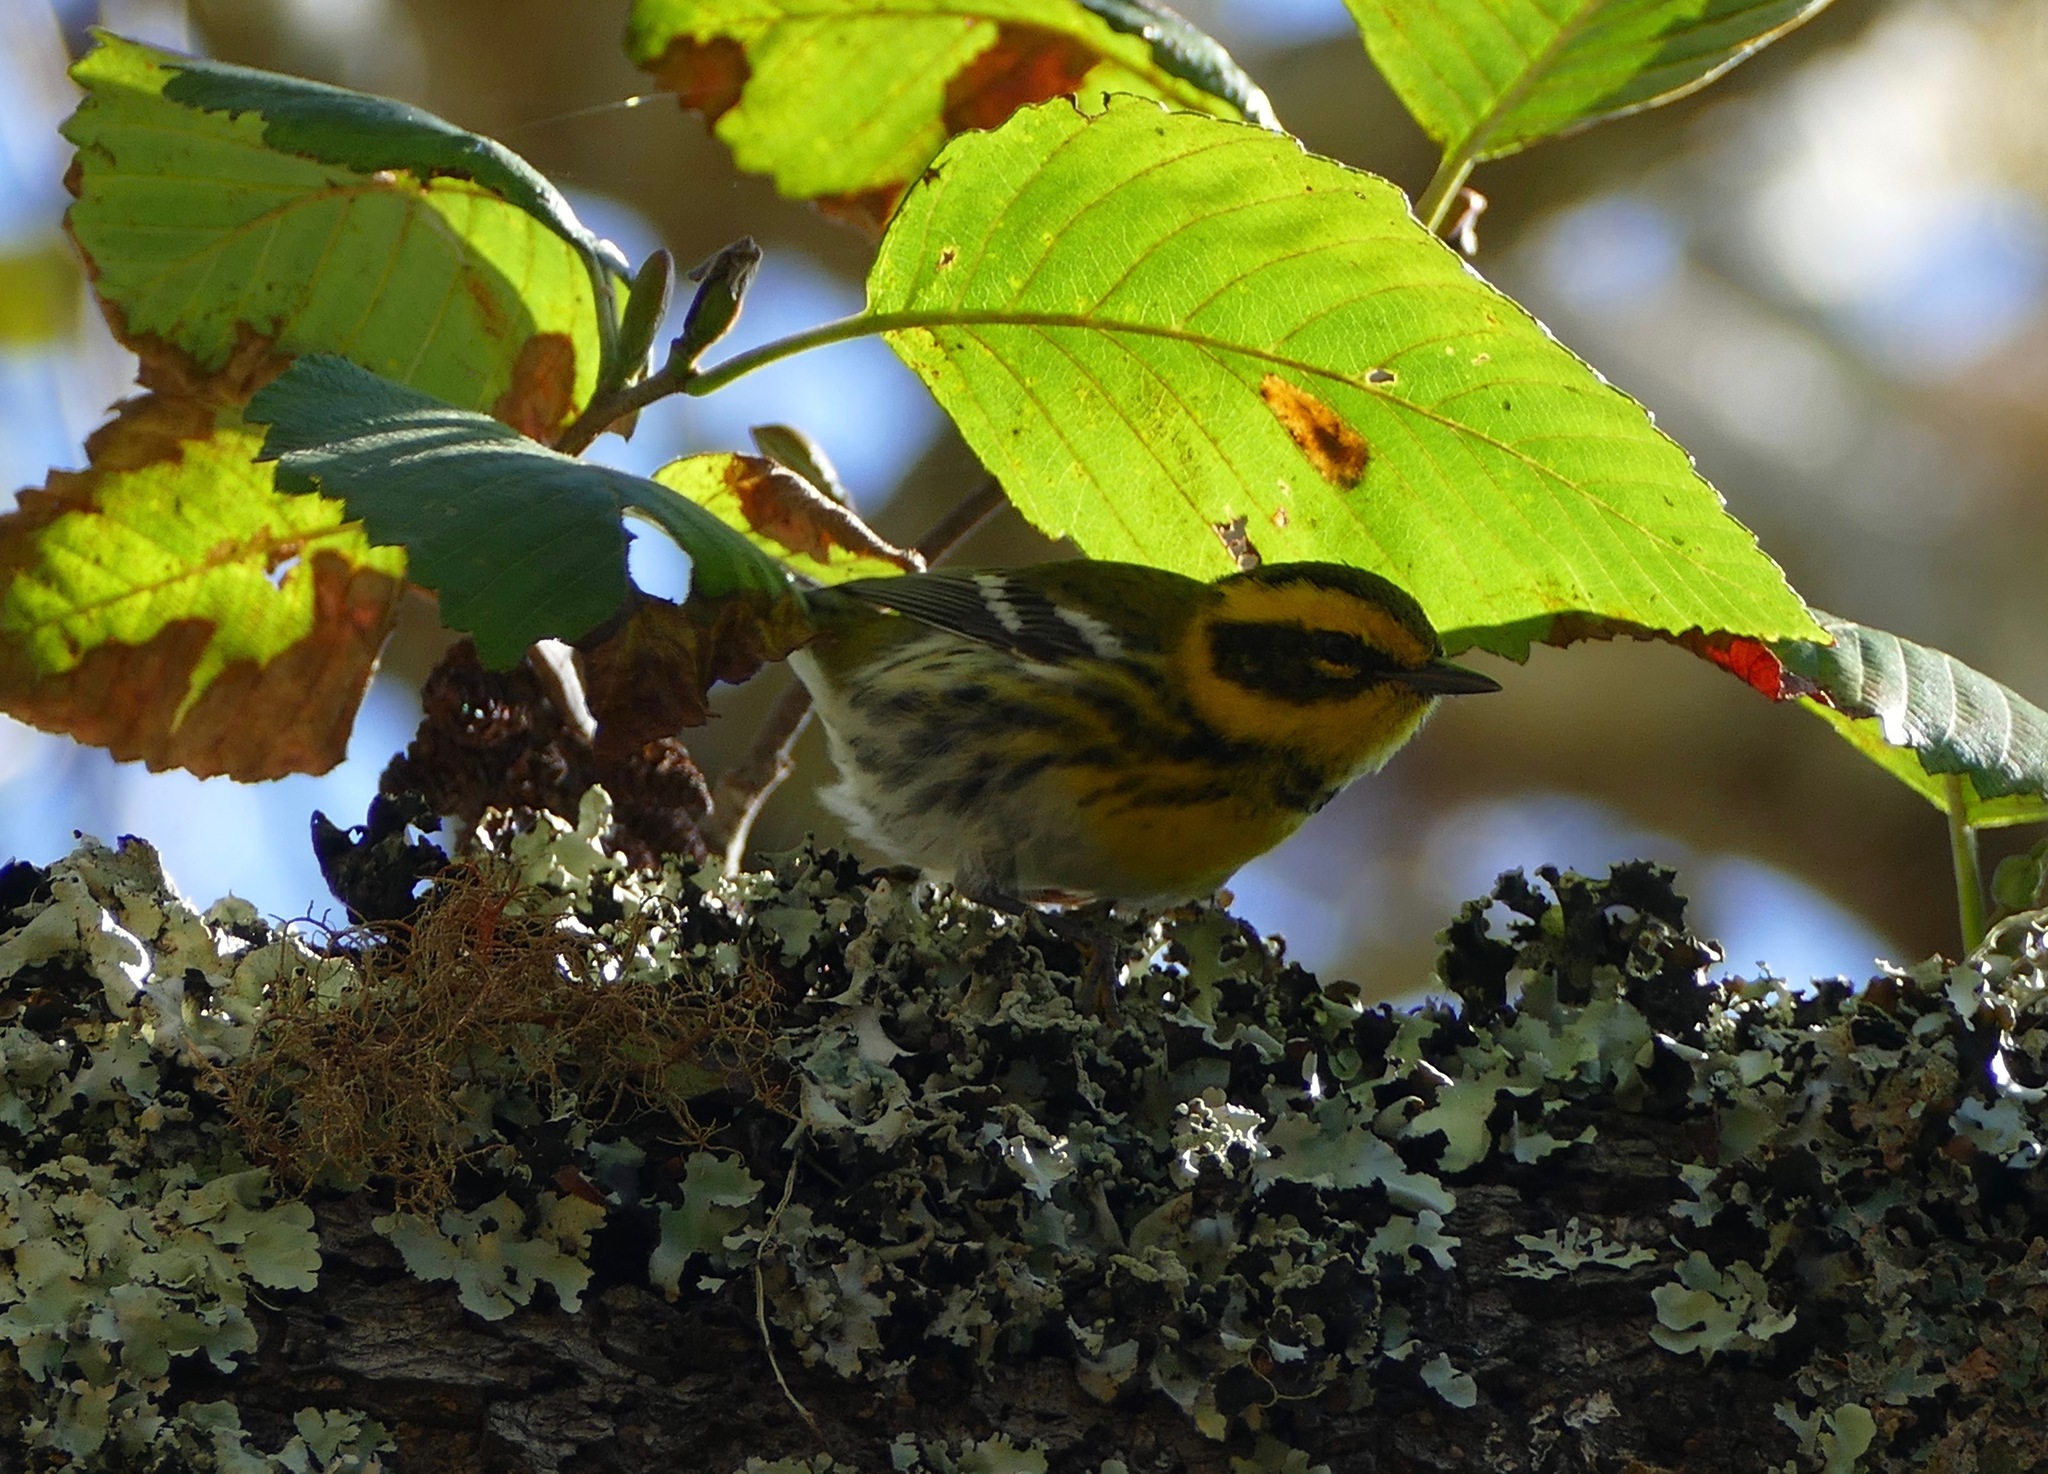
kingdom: Animalia
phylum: Chordata
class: Aves
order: Passeriformes
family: Parulidae
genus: Setophaga
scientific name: Setophaga townsendi
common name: Townsend's warbler
